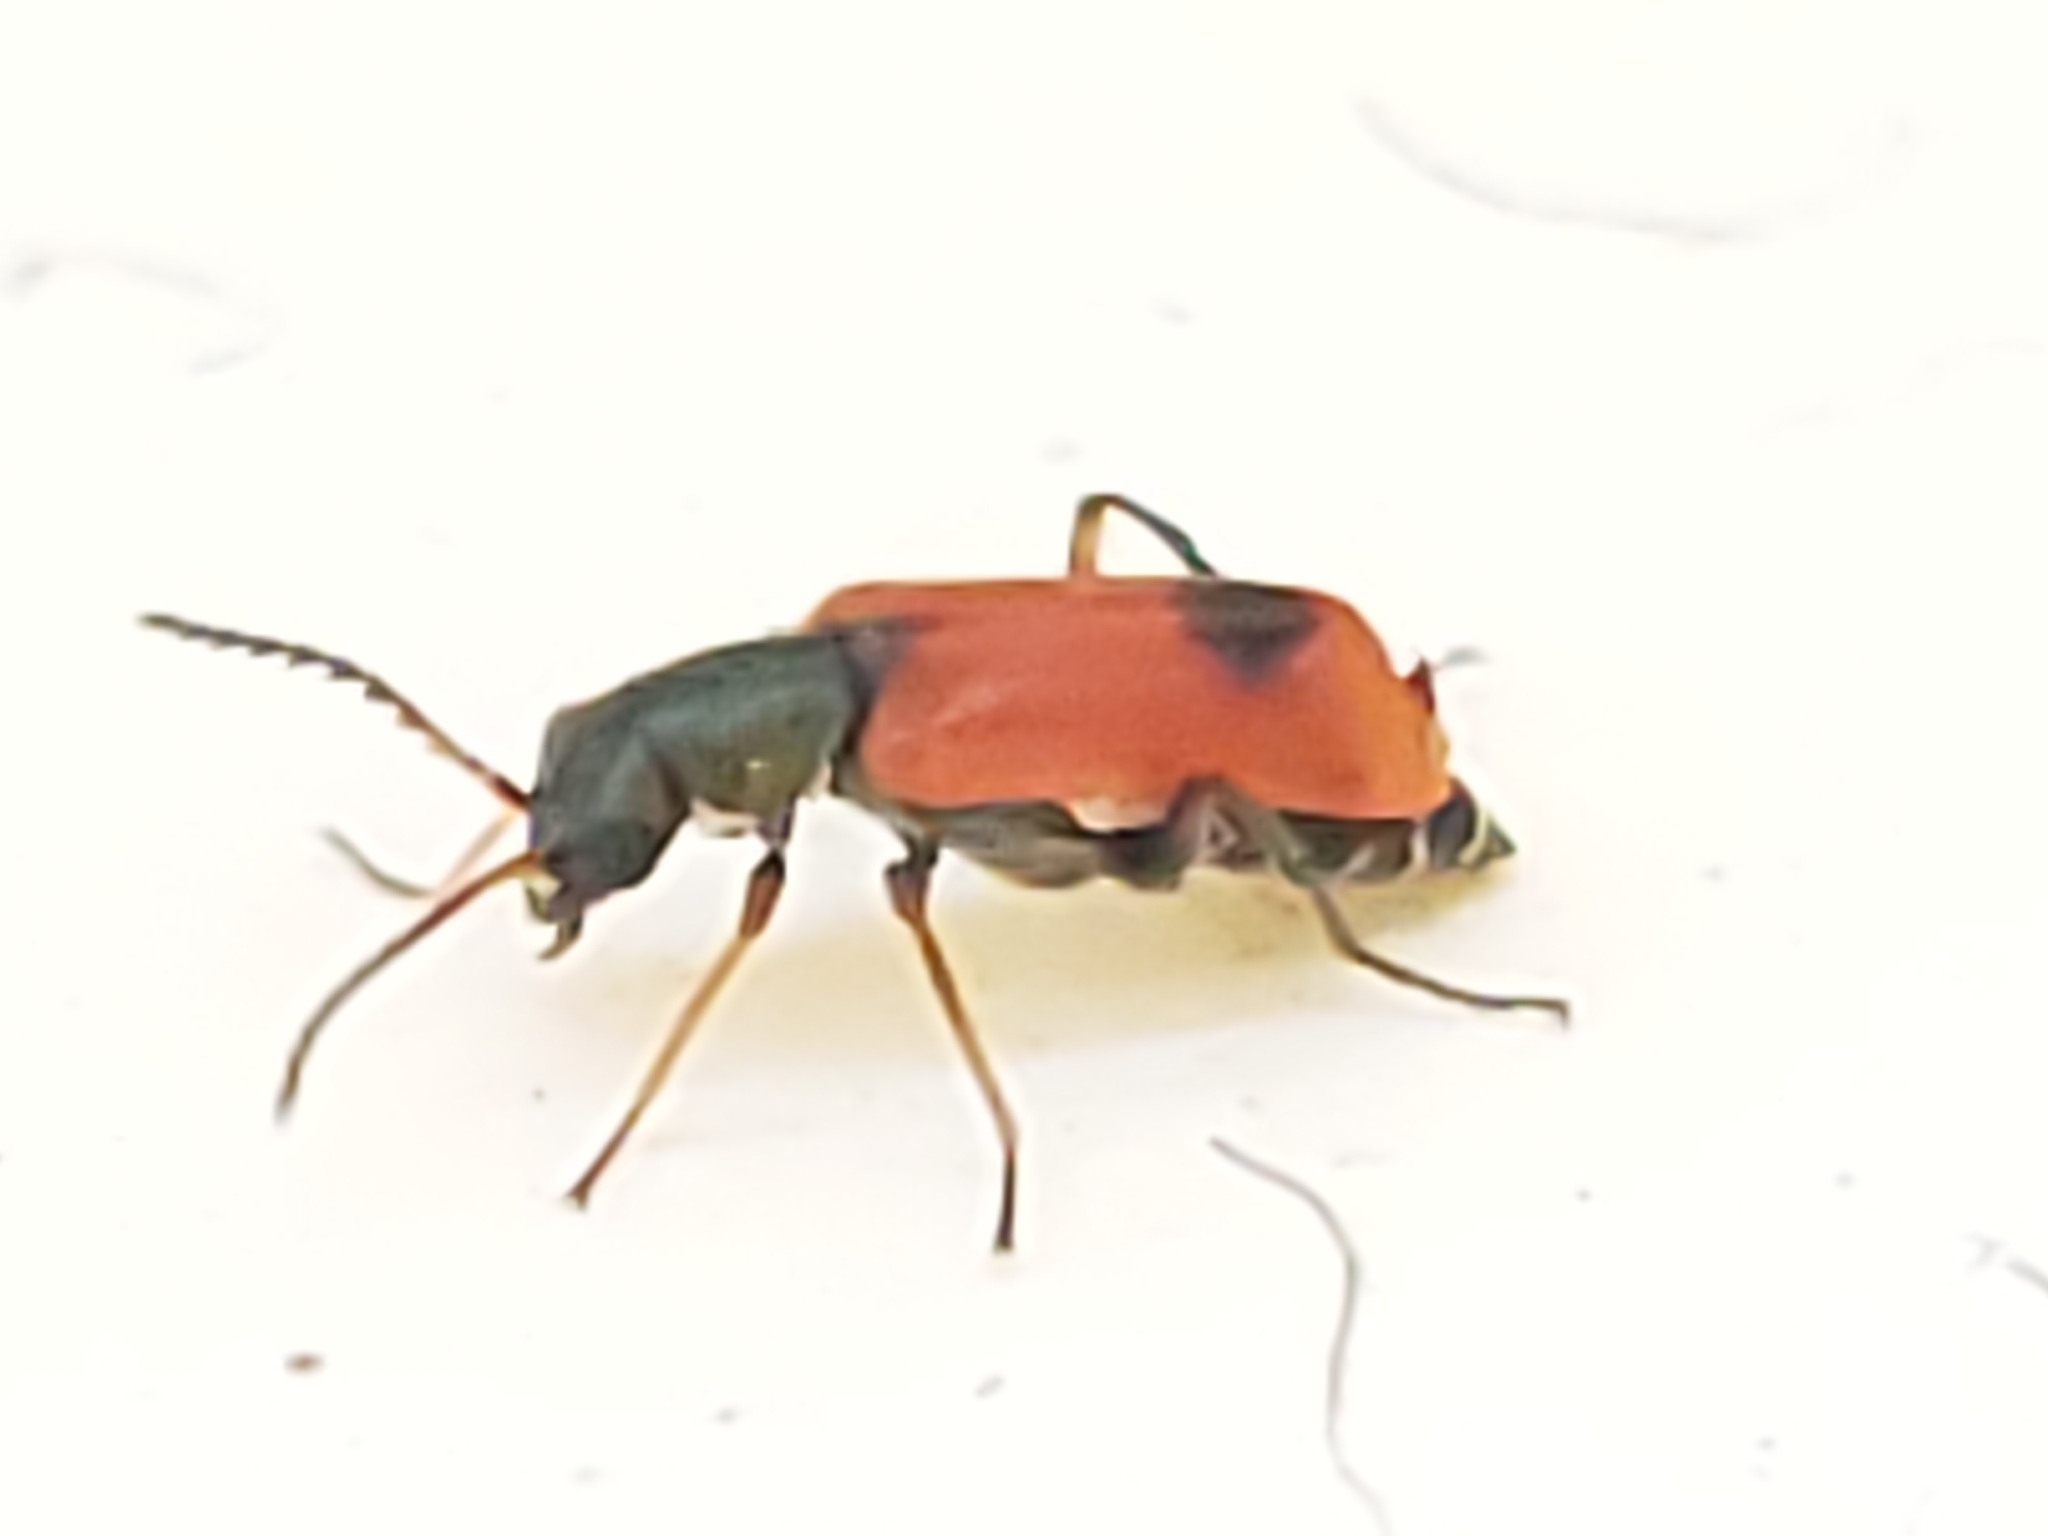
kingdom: Animalia
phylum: Arthropoda
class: Insecta
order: Coleoptera
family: Melyridae
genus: Anthocomus
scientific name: Anthocomus equestris
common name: Black-banded soft-winged flower beetle
